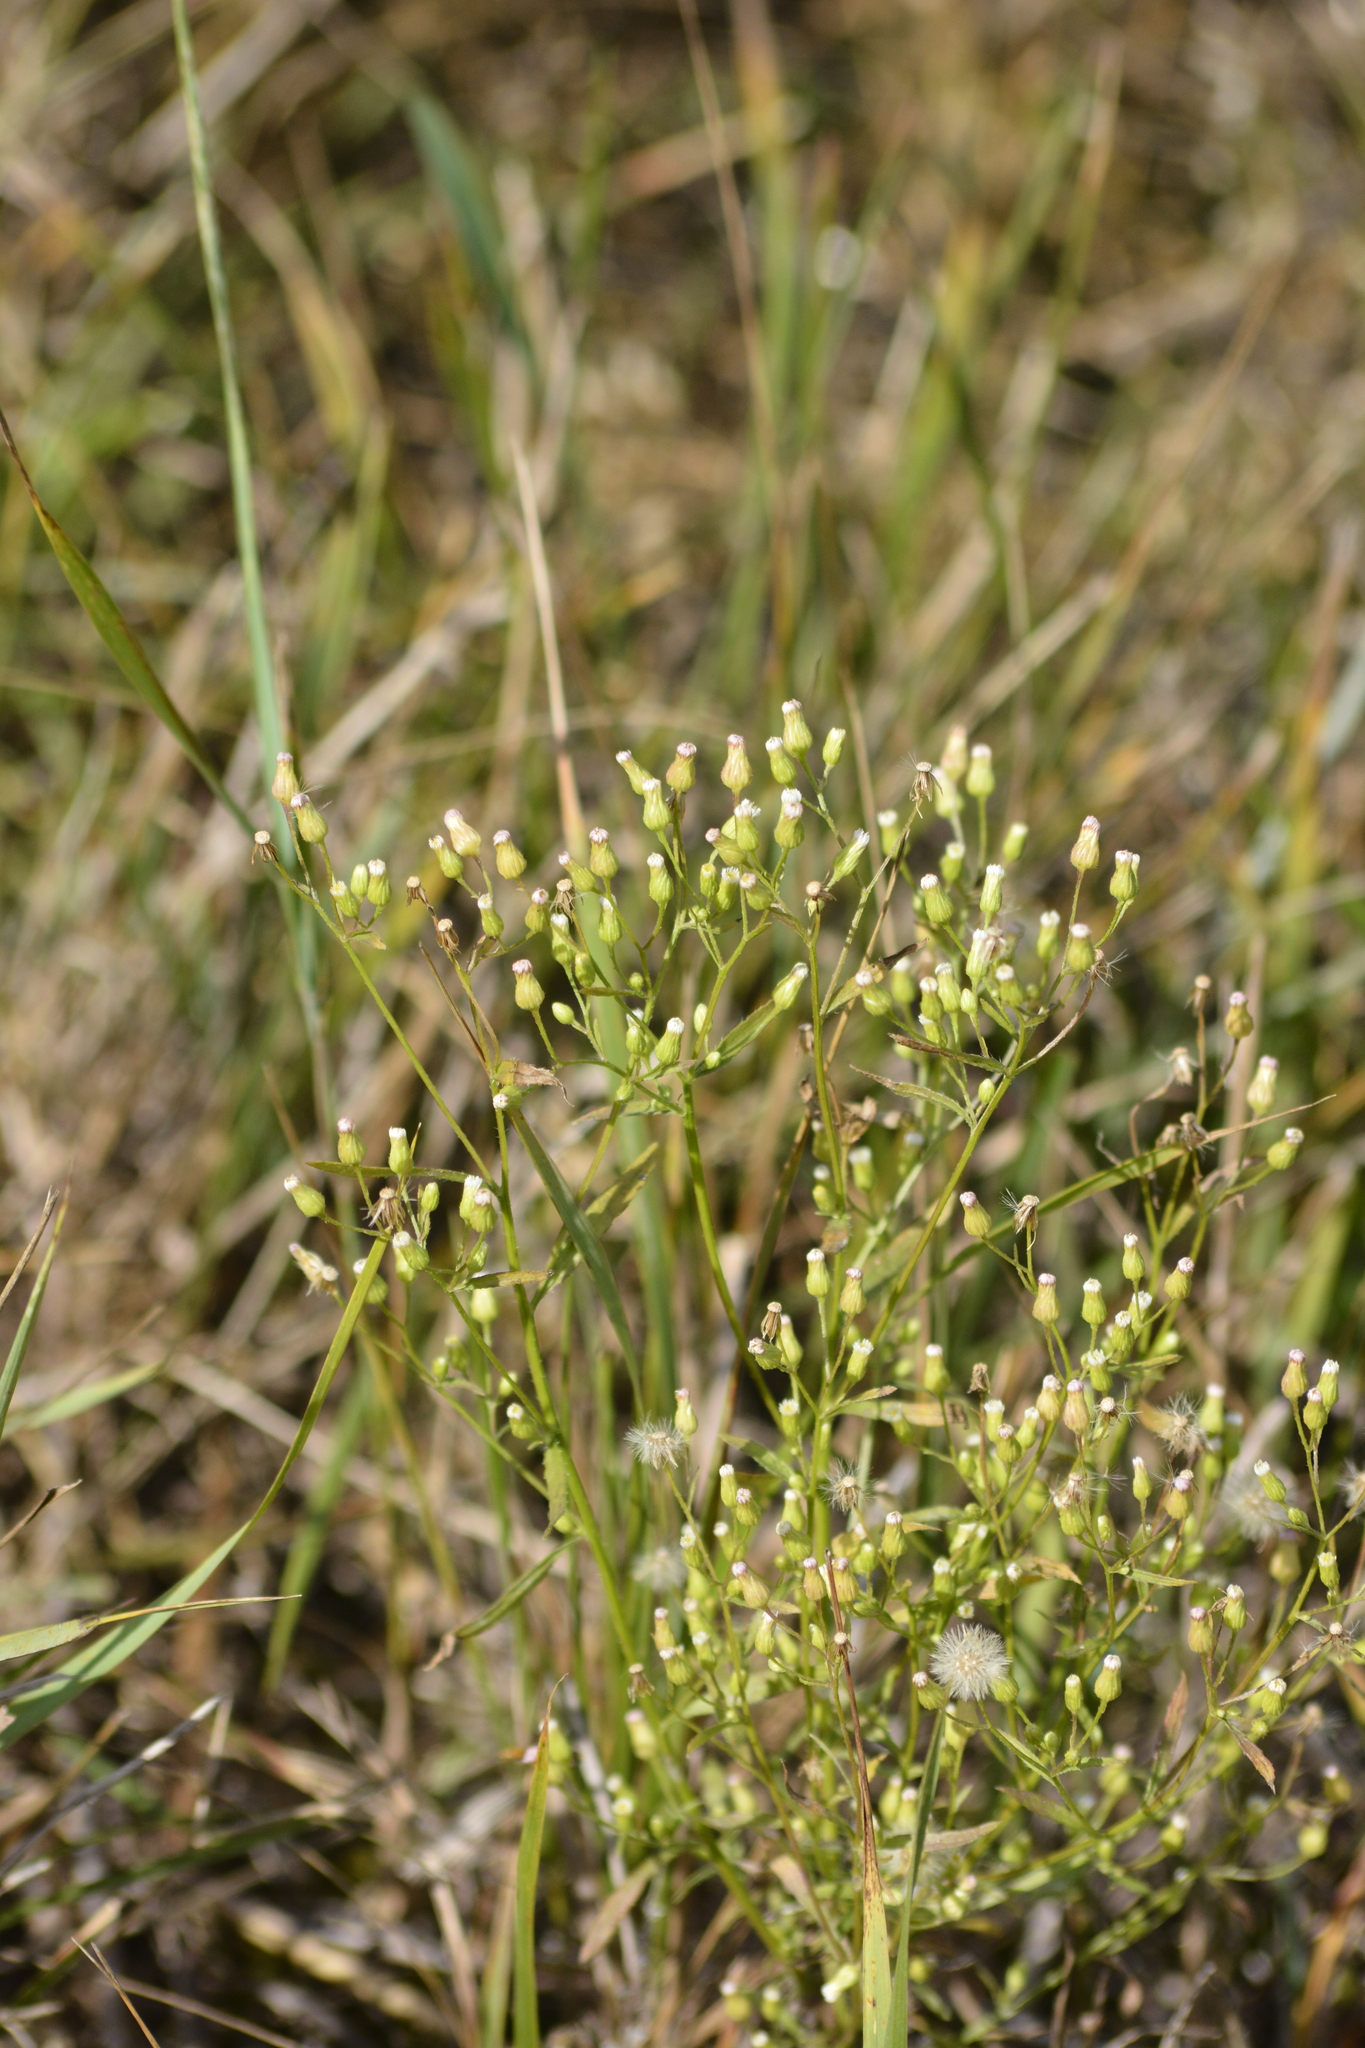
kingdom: Plantae
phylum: Tracheophyta
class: Magnoliopsida
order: Asterales
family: Asteraceae
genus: Erigeron
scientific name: Erigeron canadensis
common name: Canadian fleabane
